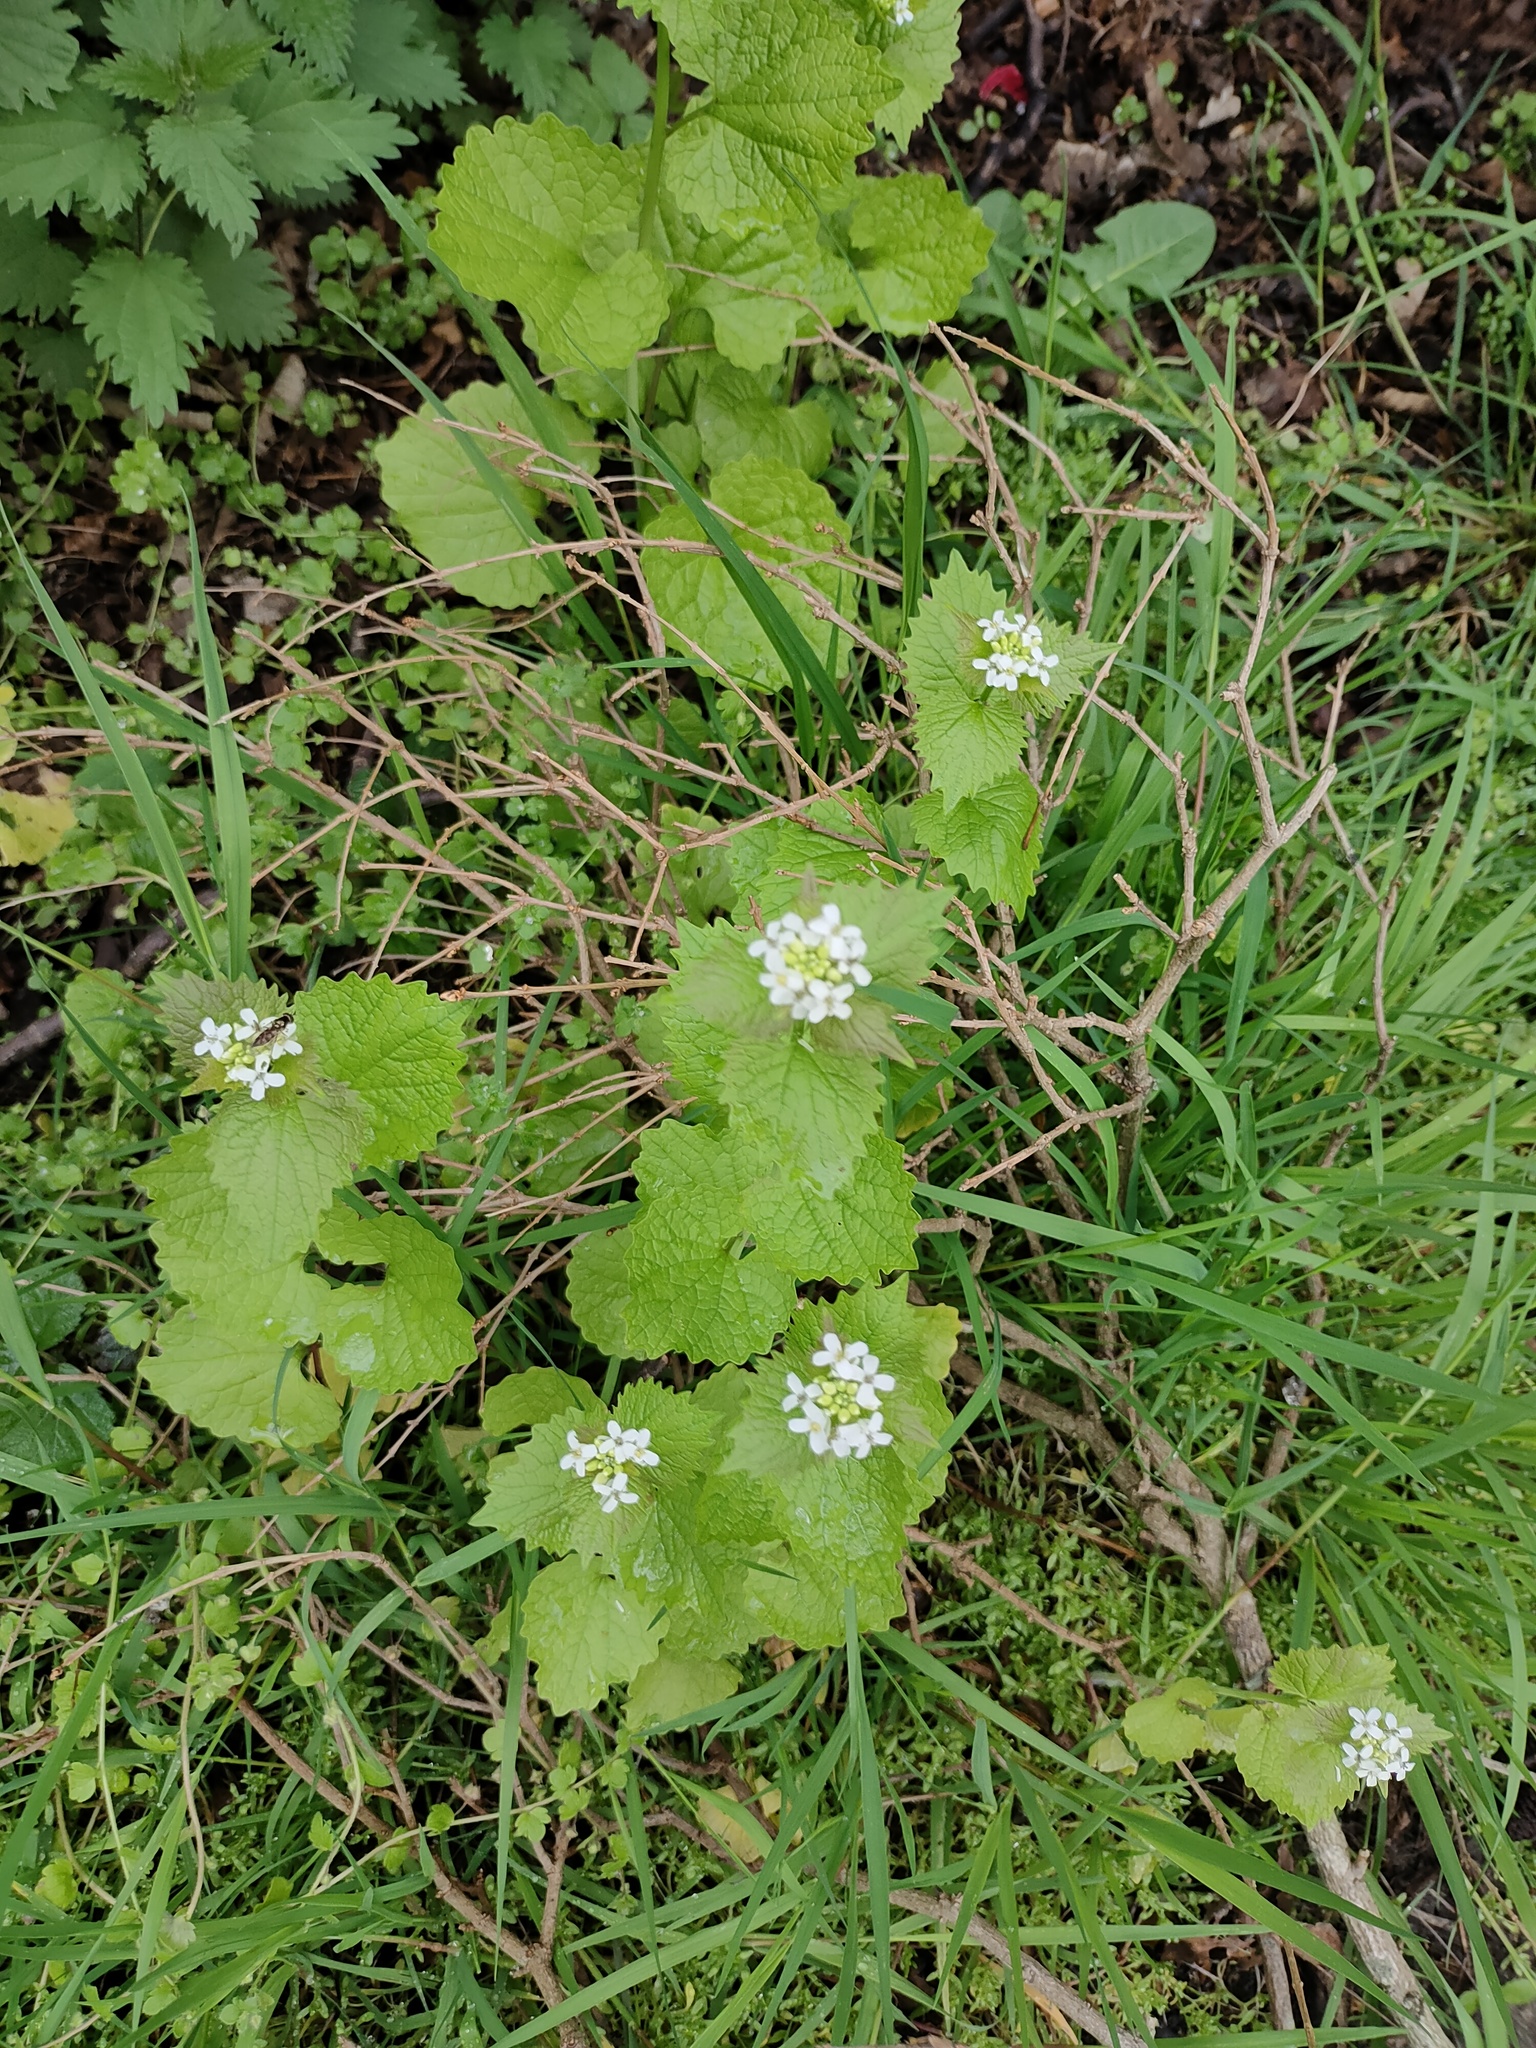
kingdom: Plantae
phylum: Tracheophyta
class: Magnoliopsida
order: Brassicales
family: Brassicaceae
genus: Alliaria
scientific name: Alliaria petiolata
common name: Garlic mustard
